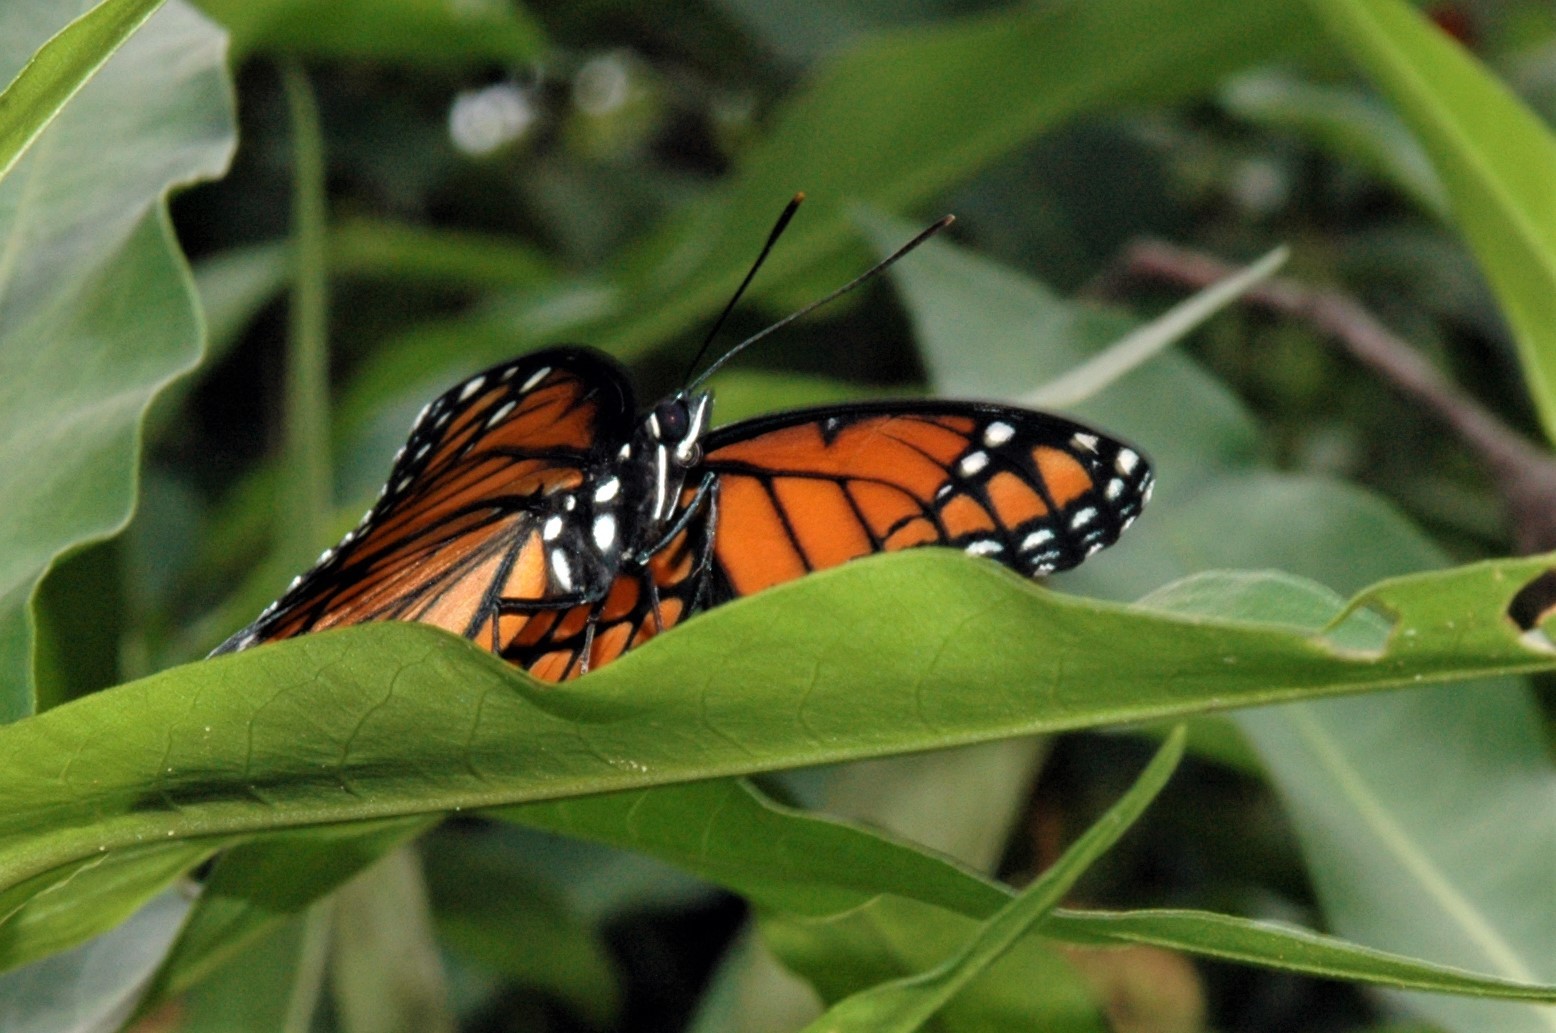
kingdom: Animalia
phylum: Arthropoda
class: Insecta
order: Lepidoptera
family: Nymphalidae
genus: Limenitis
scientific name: Limenitis archippus
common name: Viceroy
